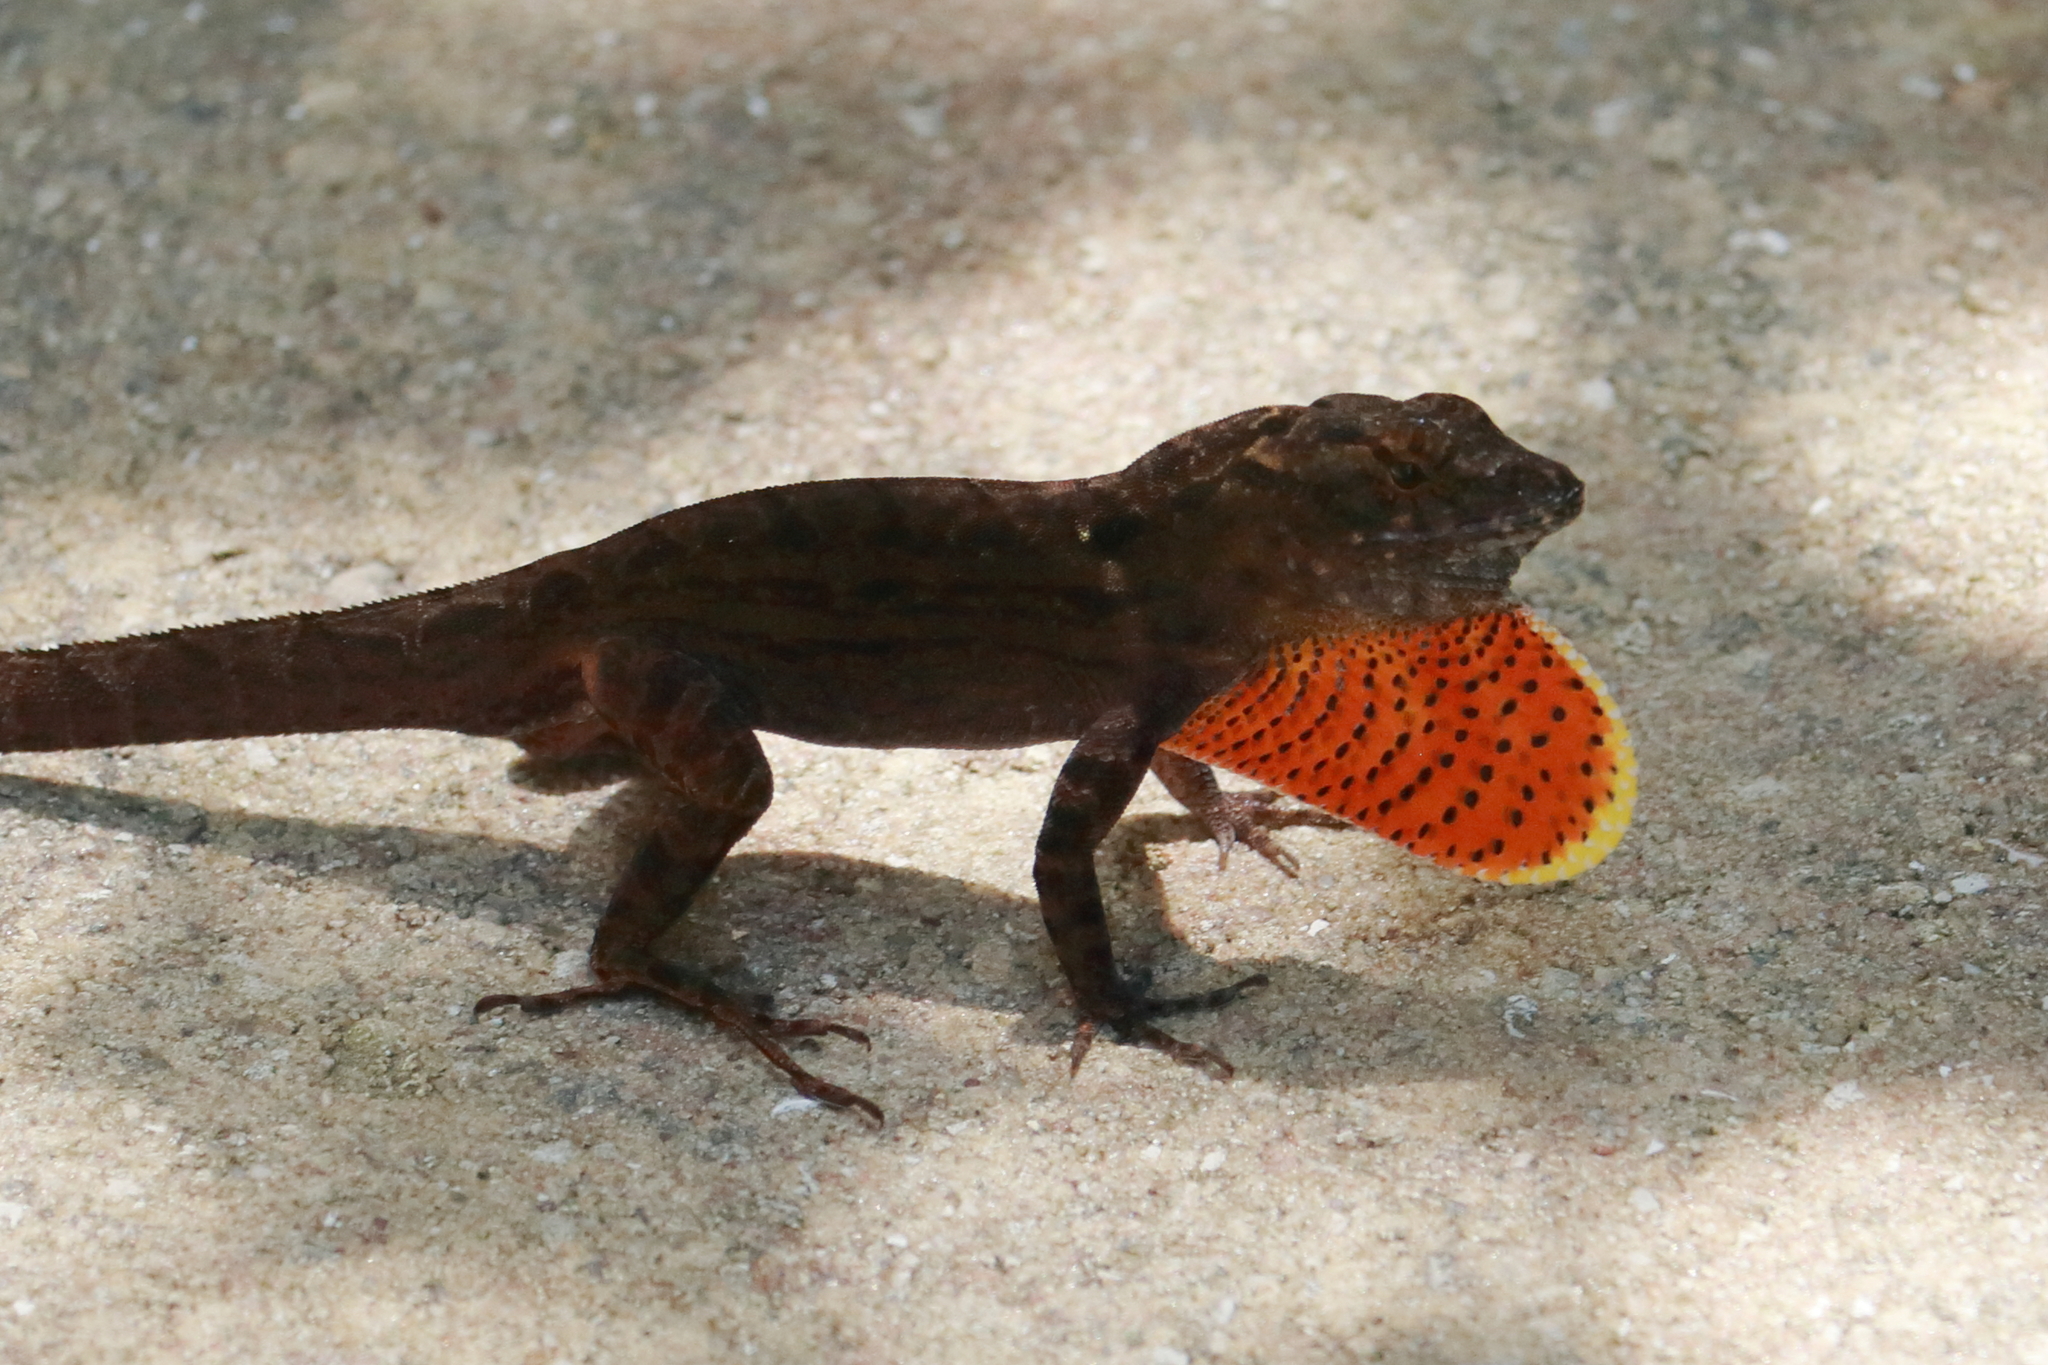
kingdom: Animalia
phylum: Chordata
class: Squamata
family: Dactyloidae
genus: Anolis
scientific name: Anolis sagrei
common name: Brown anole
